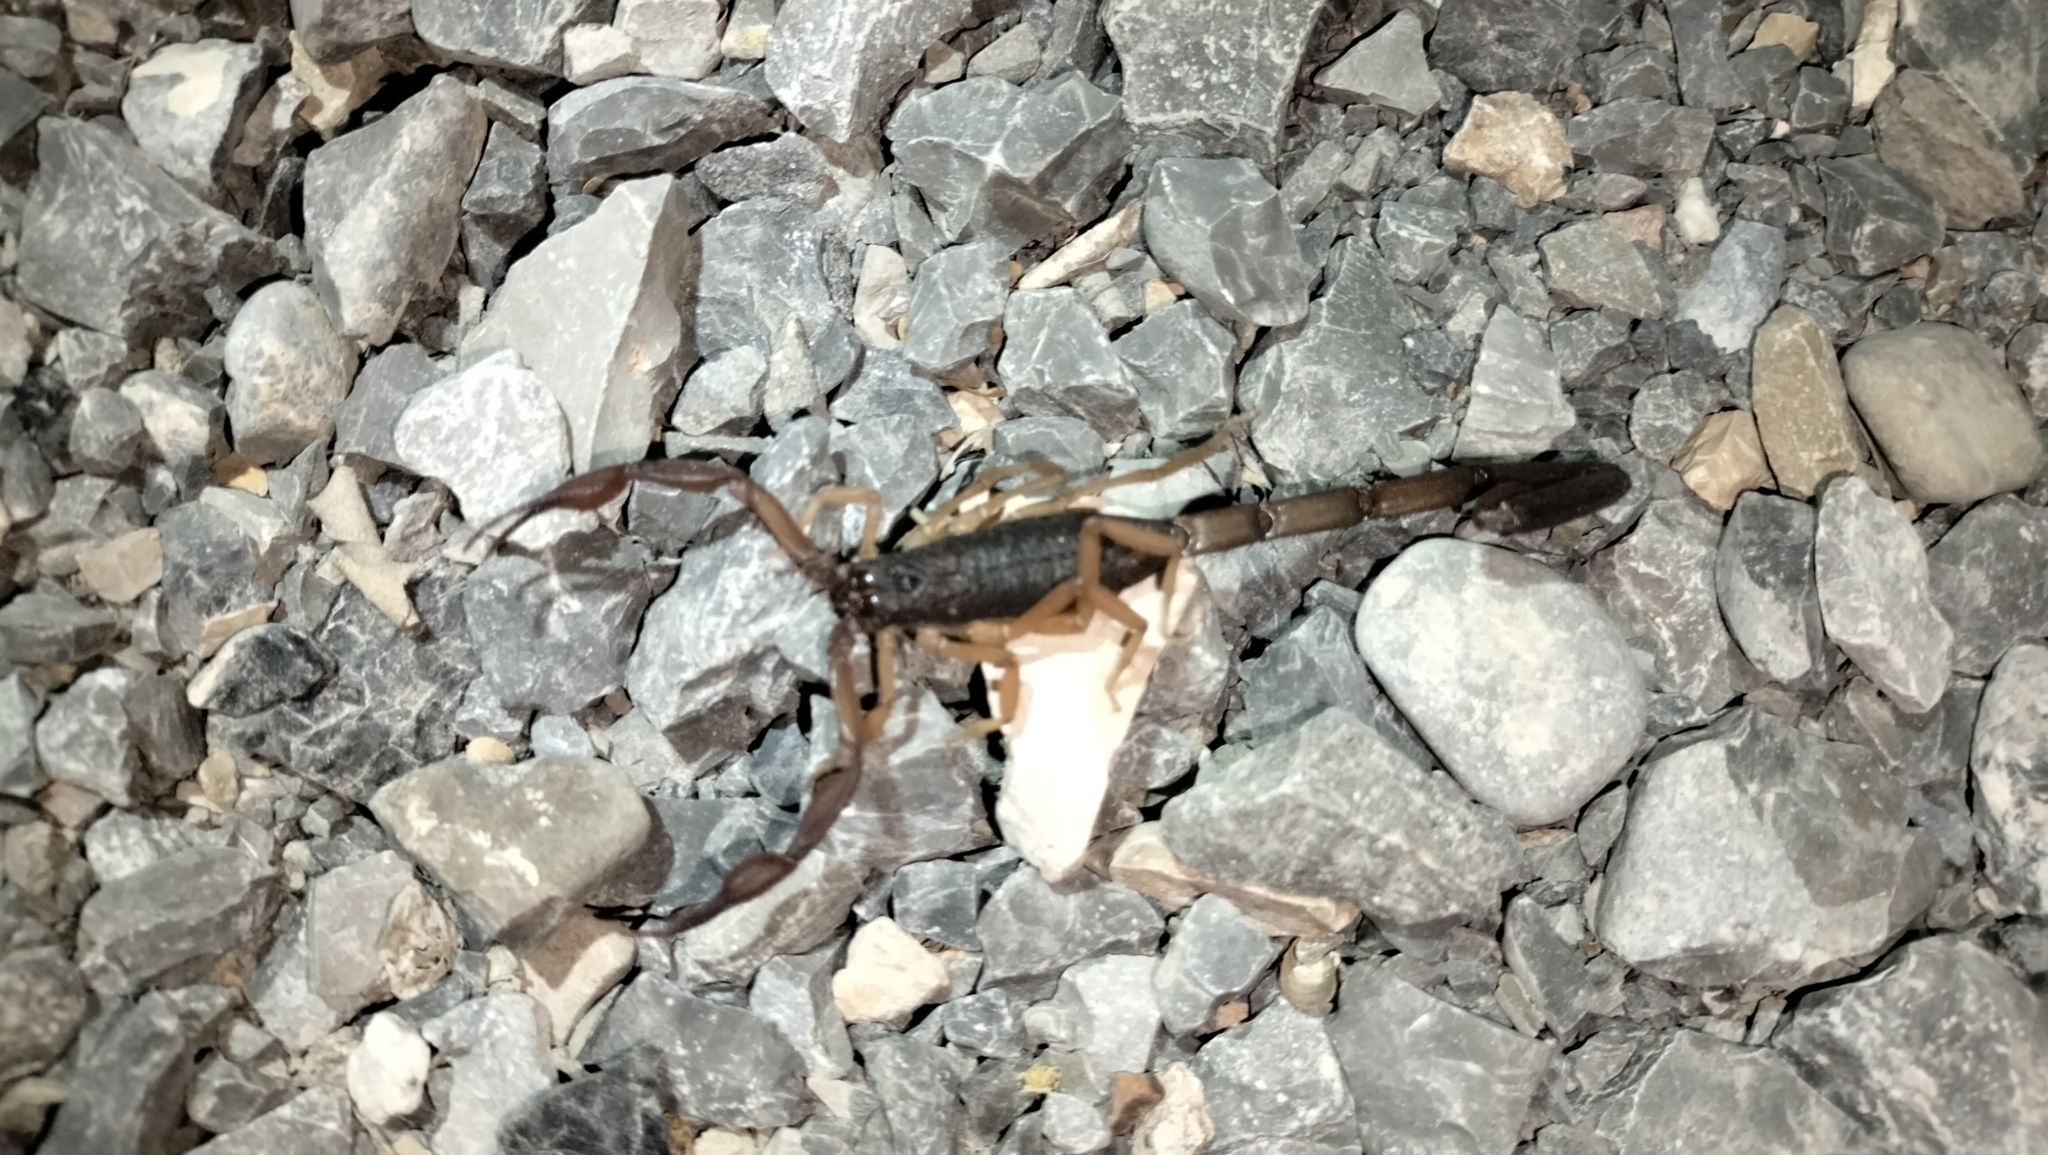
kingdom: Animalia
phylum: Arthropoda
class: Arachnida
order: Scorpiones
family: Buthidae
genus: Centruroides
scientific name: Centruroides gracilis
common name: Scorpions
